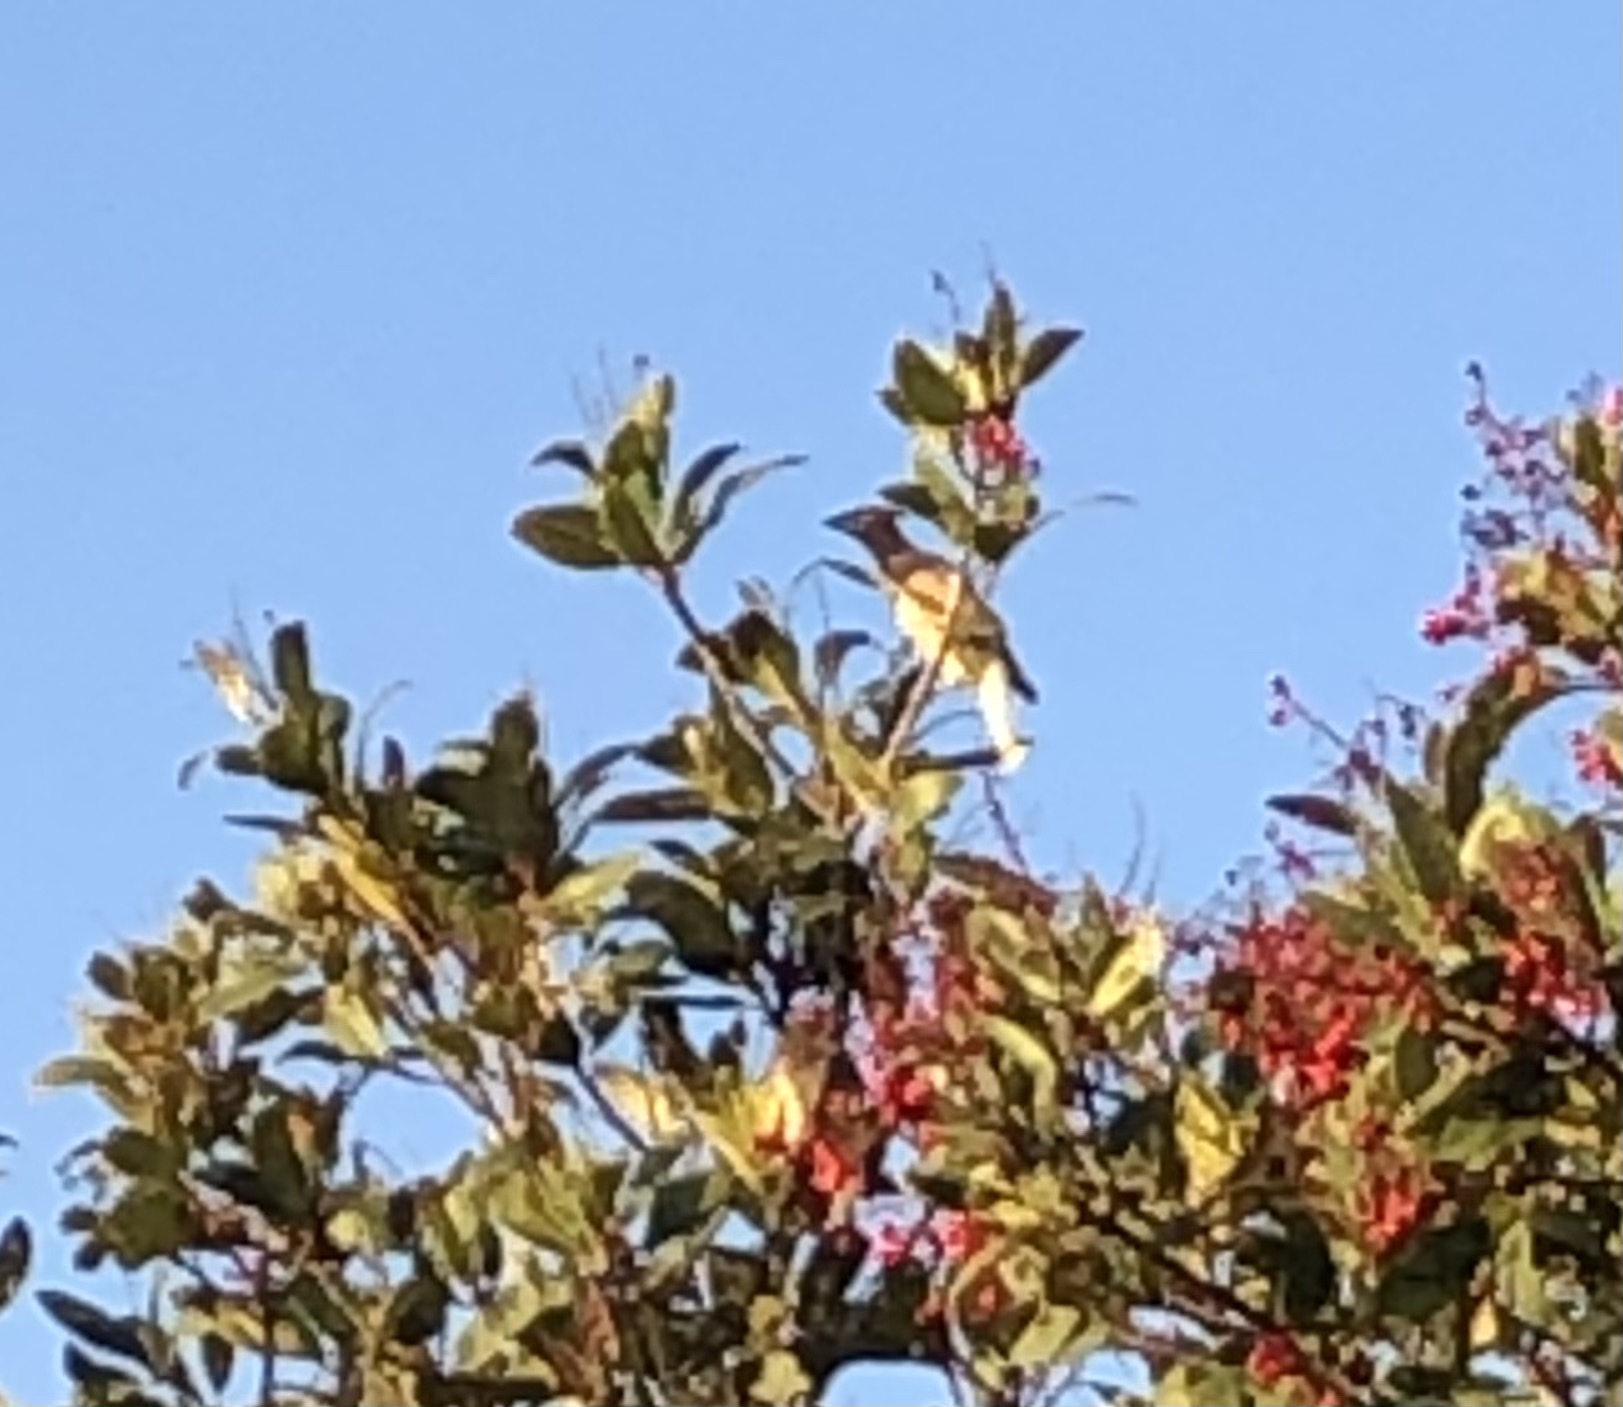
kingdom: Animalia
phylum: Chordata
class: Aves
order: Passeriformes
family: Bombycillidae
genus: Bombycilla
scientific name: Bombycilla cedrorum
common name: Cedar waxwing
